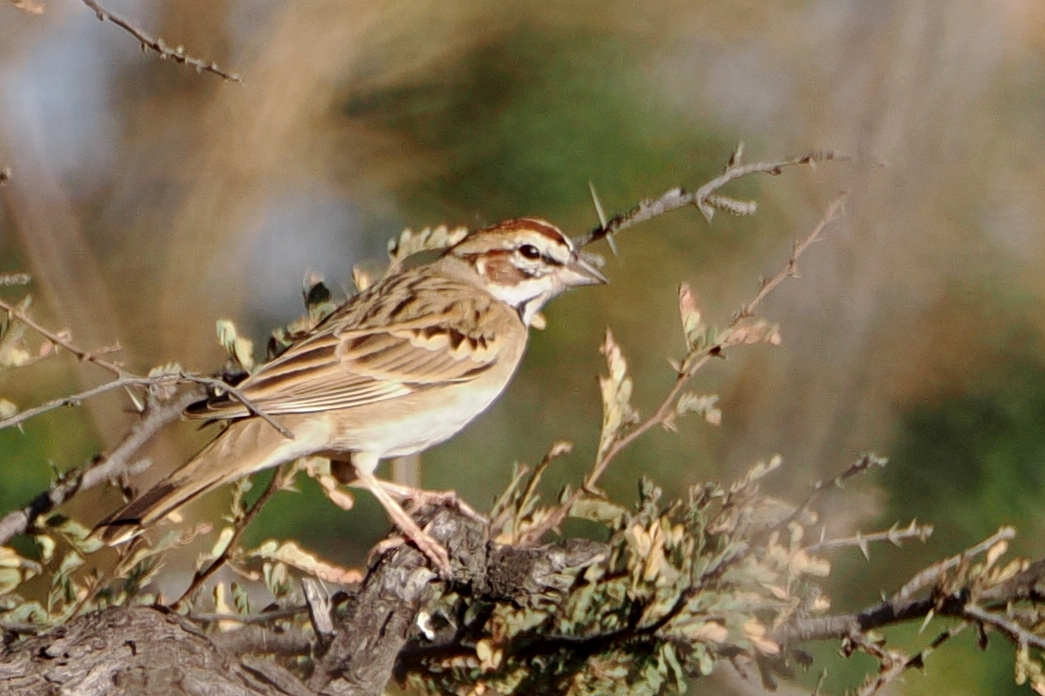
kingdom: Animalia
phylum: Chordata
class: Aves
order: Passeriformes
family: Passerellidae
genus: Chondestes
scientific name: Chondestes grammacus
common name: Lark sparrow
